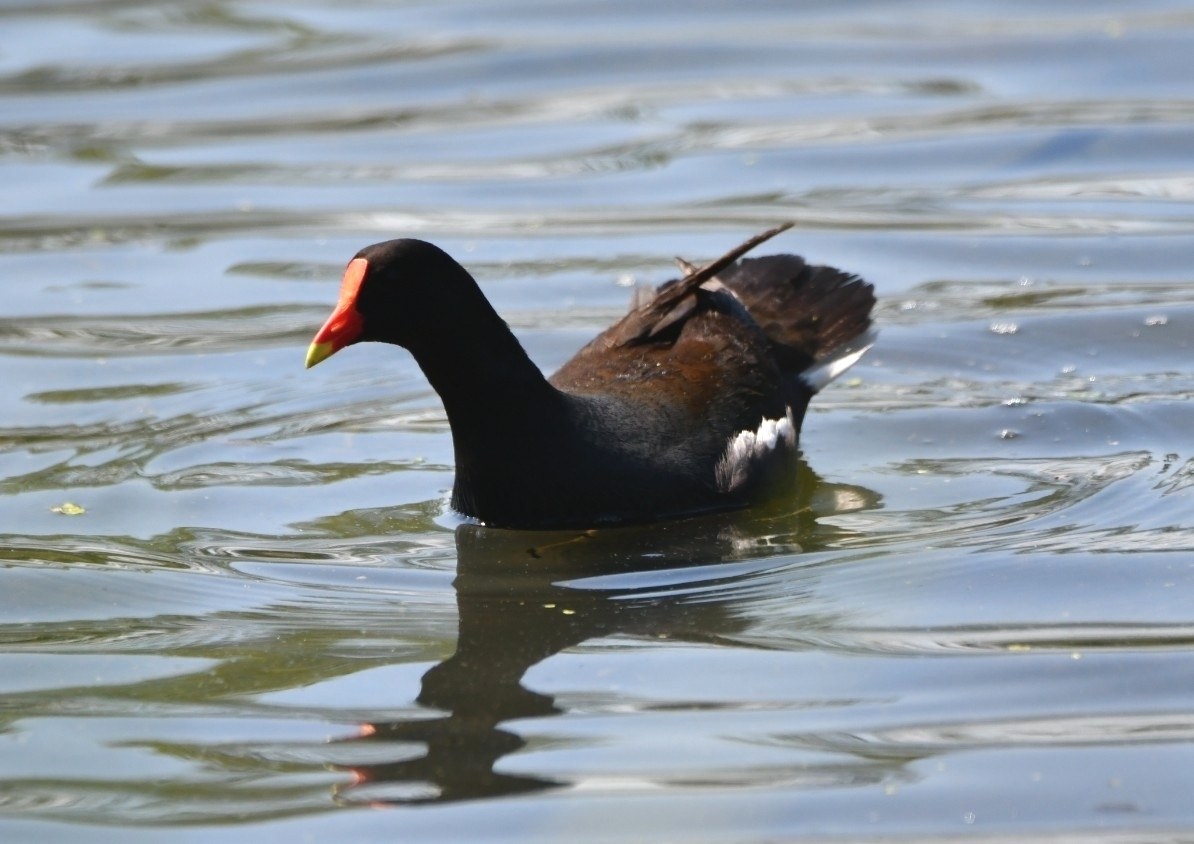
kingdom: Animalia
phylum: Chordata
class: Aves
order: Gruiformes
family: Rallidae
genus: Gallinula
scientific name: Gallinula chloropus
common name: Common moorhen
